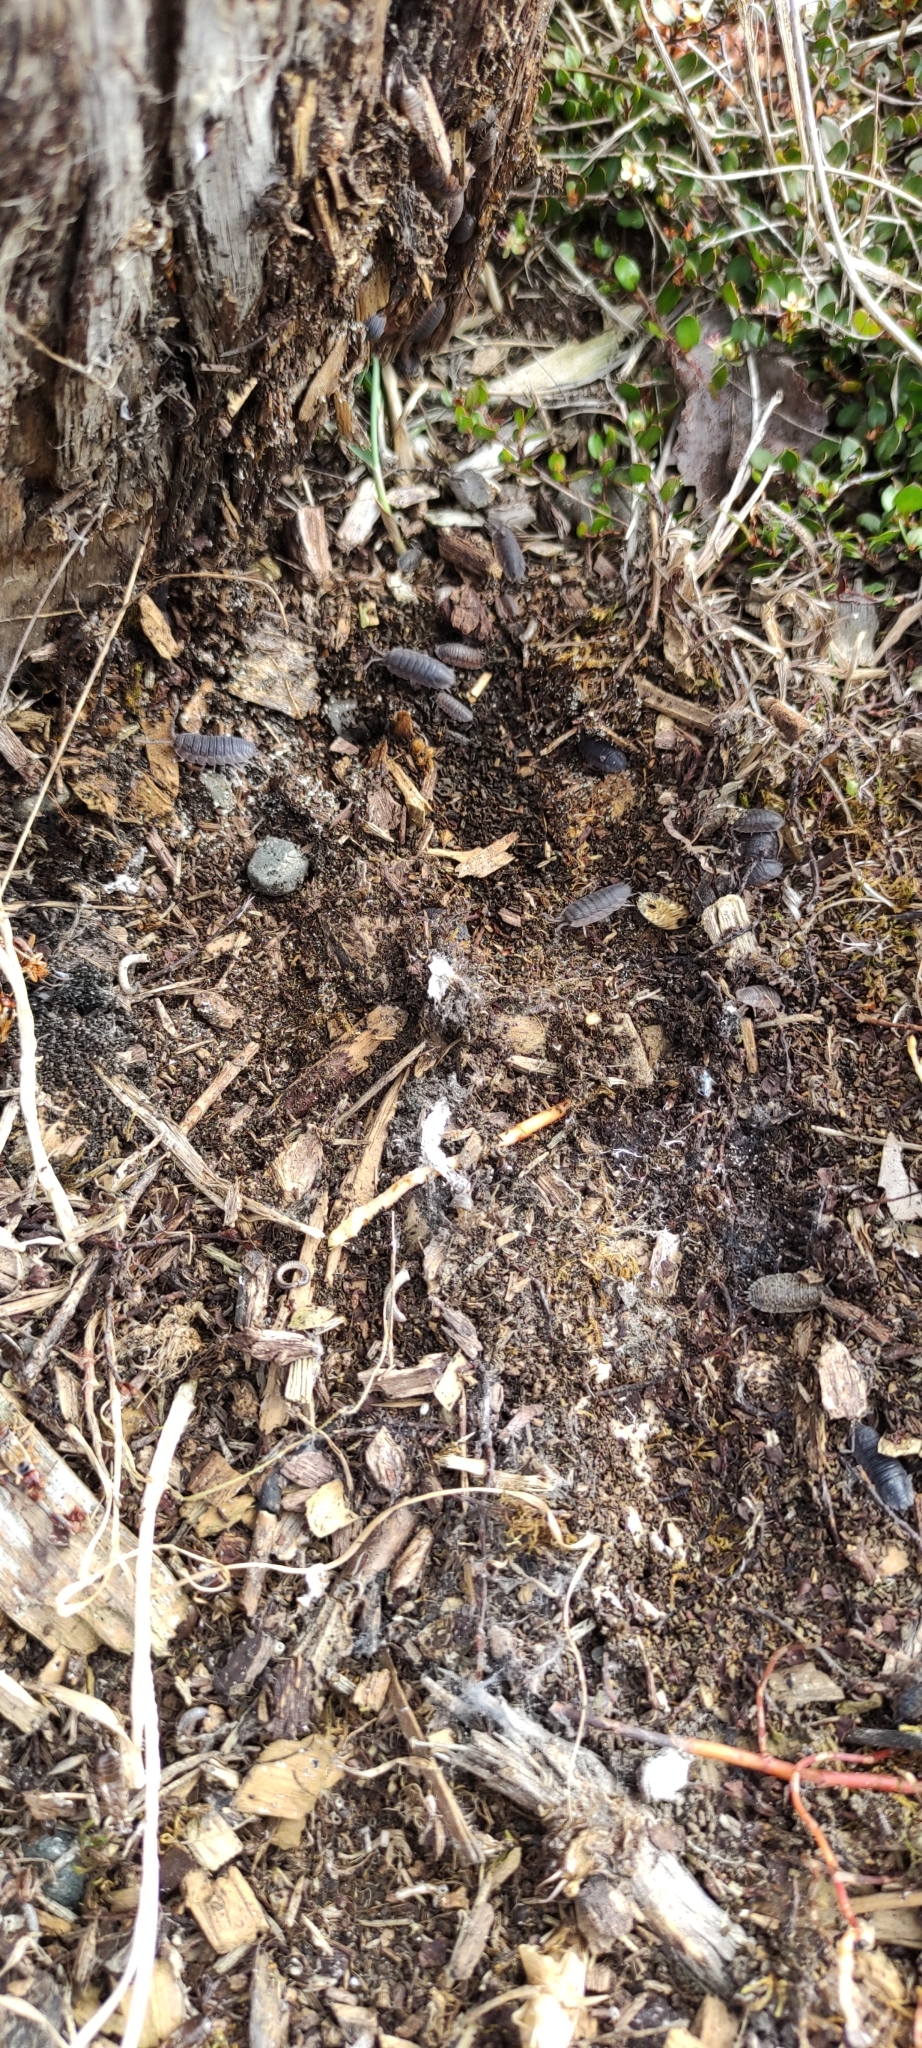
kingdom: Animalia
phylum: Arthropoda
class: Malacostraca
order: Isopoda
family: Porcellionidae
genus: Porcellio
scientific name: Porcellio scaber
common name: Common rough woodlouse
